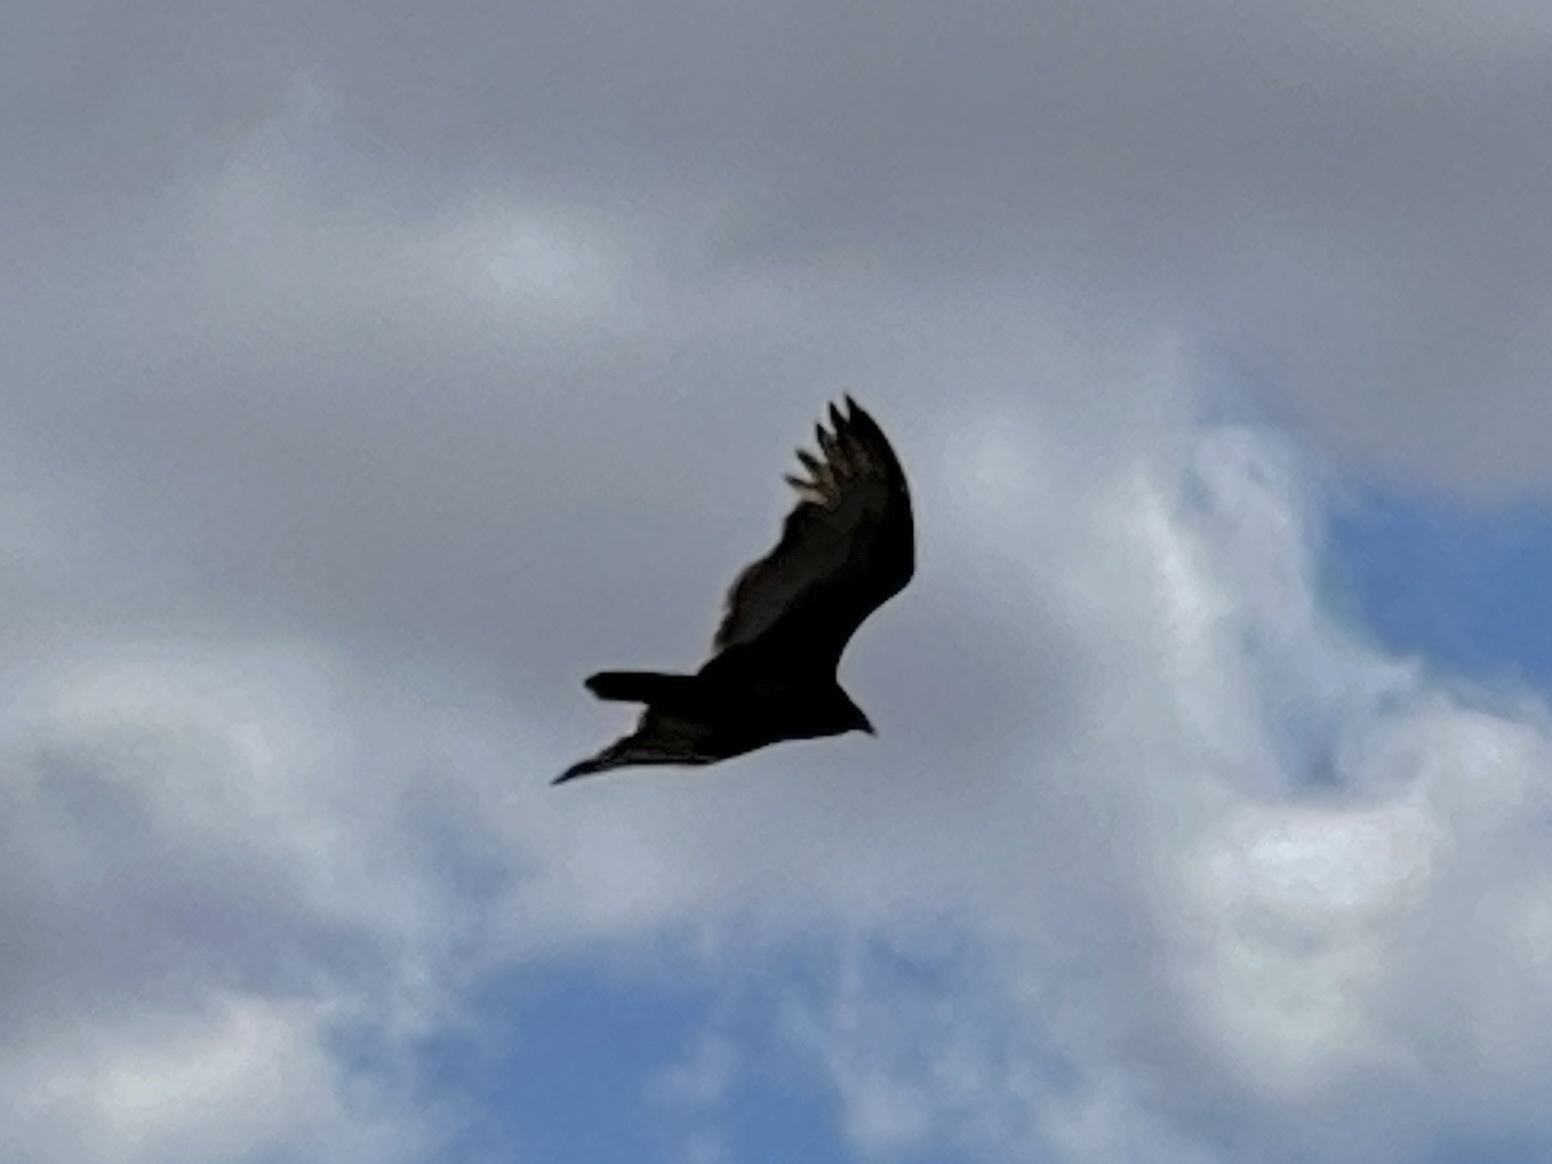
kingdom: Animalia
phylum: Chordata
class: Aves
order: Accipitriformes
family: Cathartidae
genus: Cathartes
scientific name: Cathartes aura
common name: Turkey vulture
